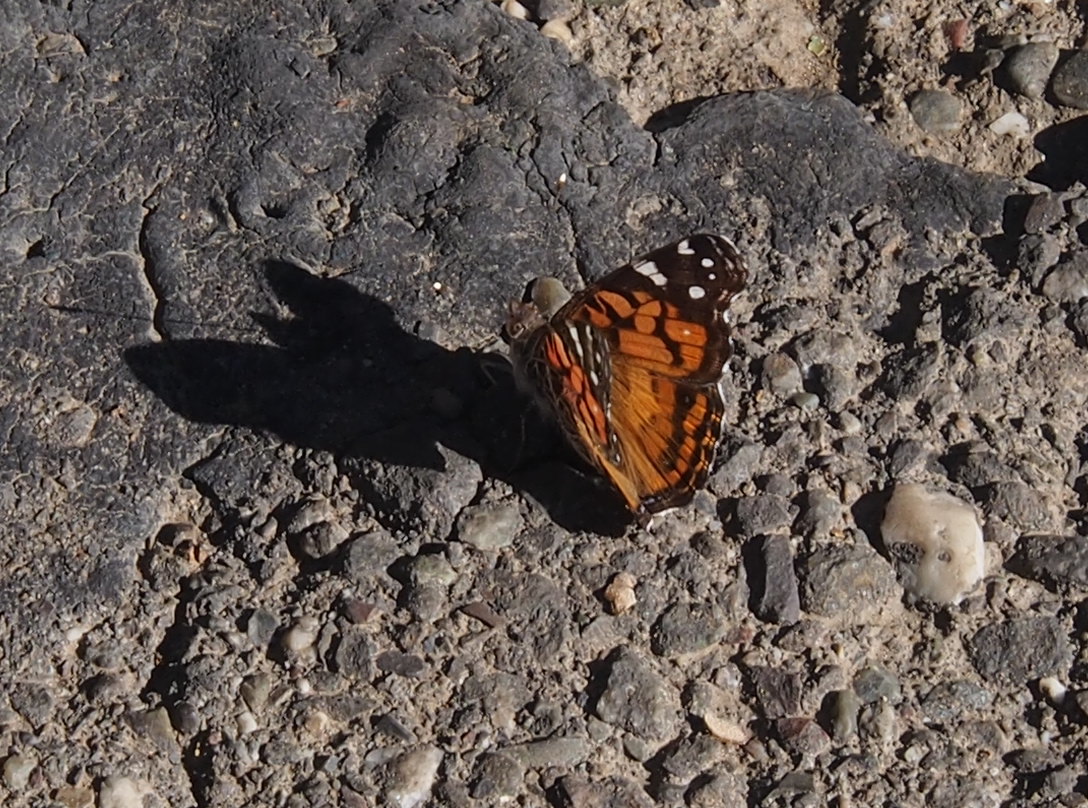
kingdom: Animalia
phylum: Arthropoda
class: Insecta
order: Lepidoptera
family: Nymphalidae
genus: Vanessa
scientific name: Vanessa virginiensis
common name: American lady
